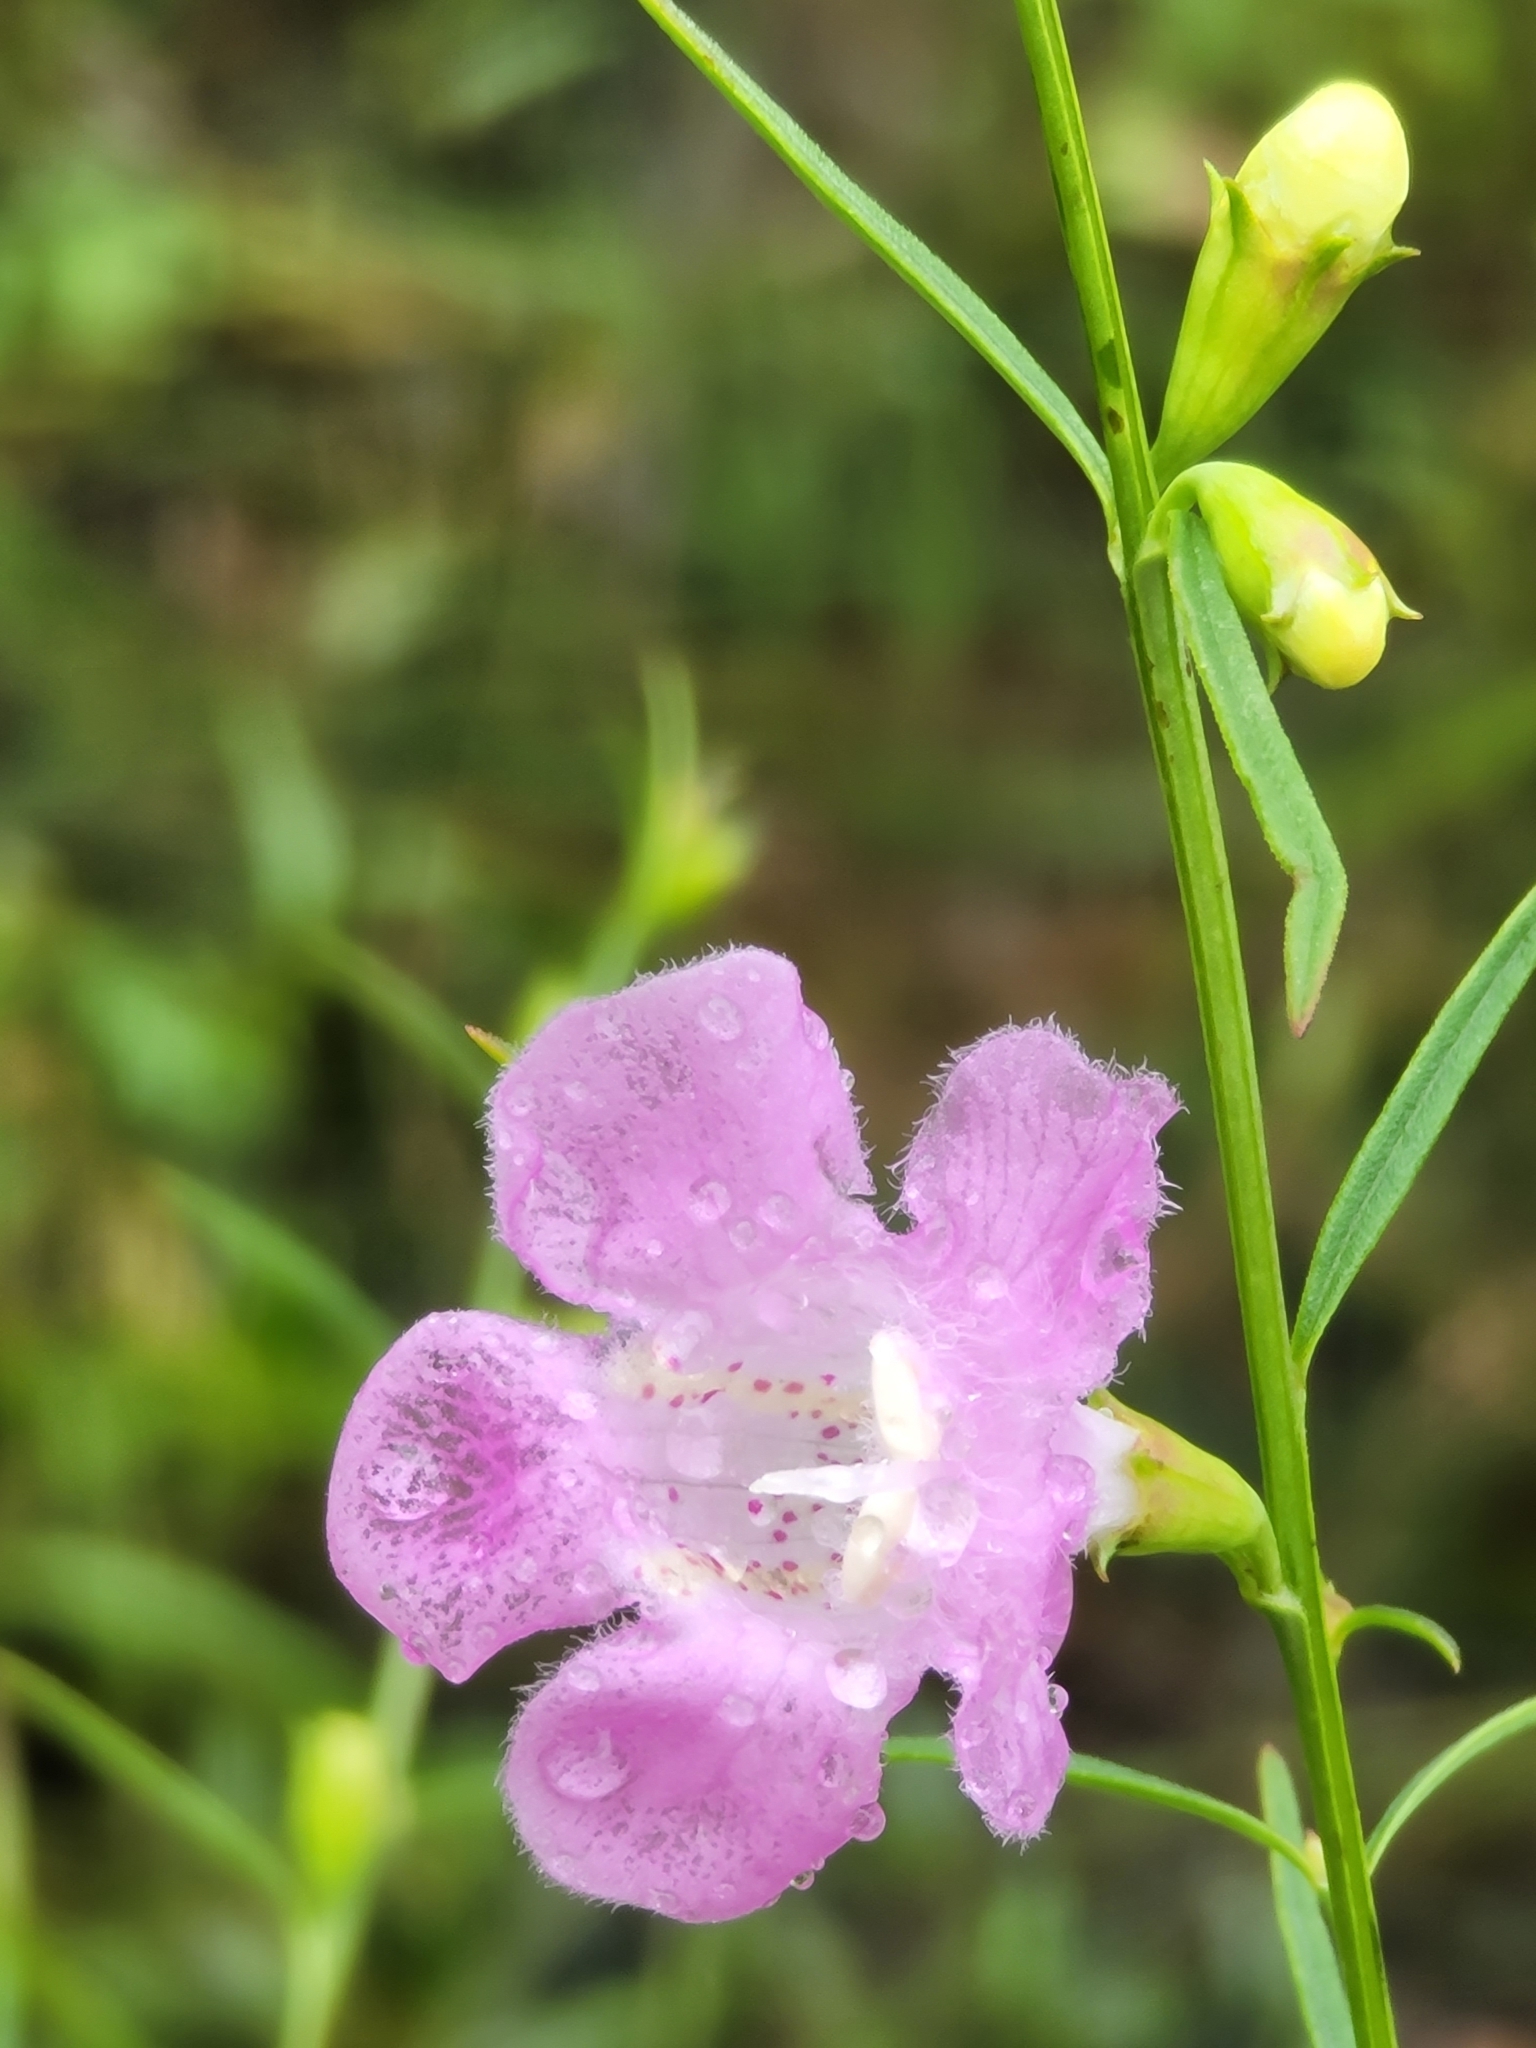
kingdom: Plantae
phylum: Tracheophyta
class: Magnoliopsida
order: Lamiales
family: Orobanchaceae
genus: Agalinis
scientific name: Agalinis purpurea
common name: Purple false foxglove
